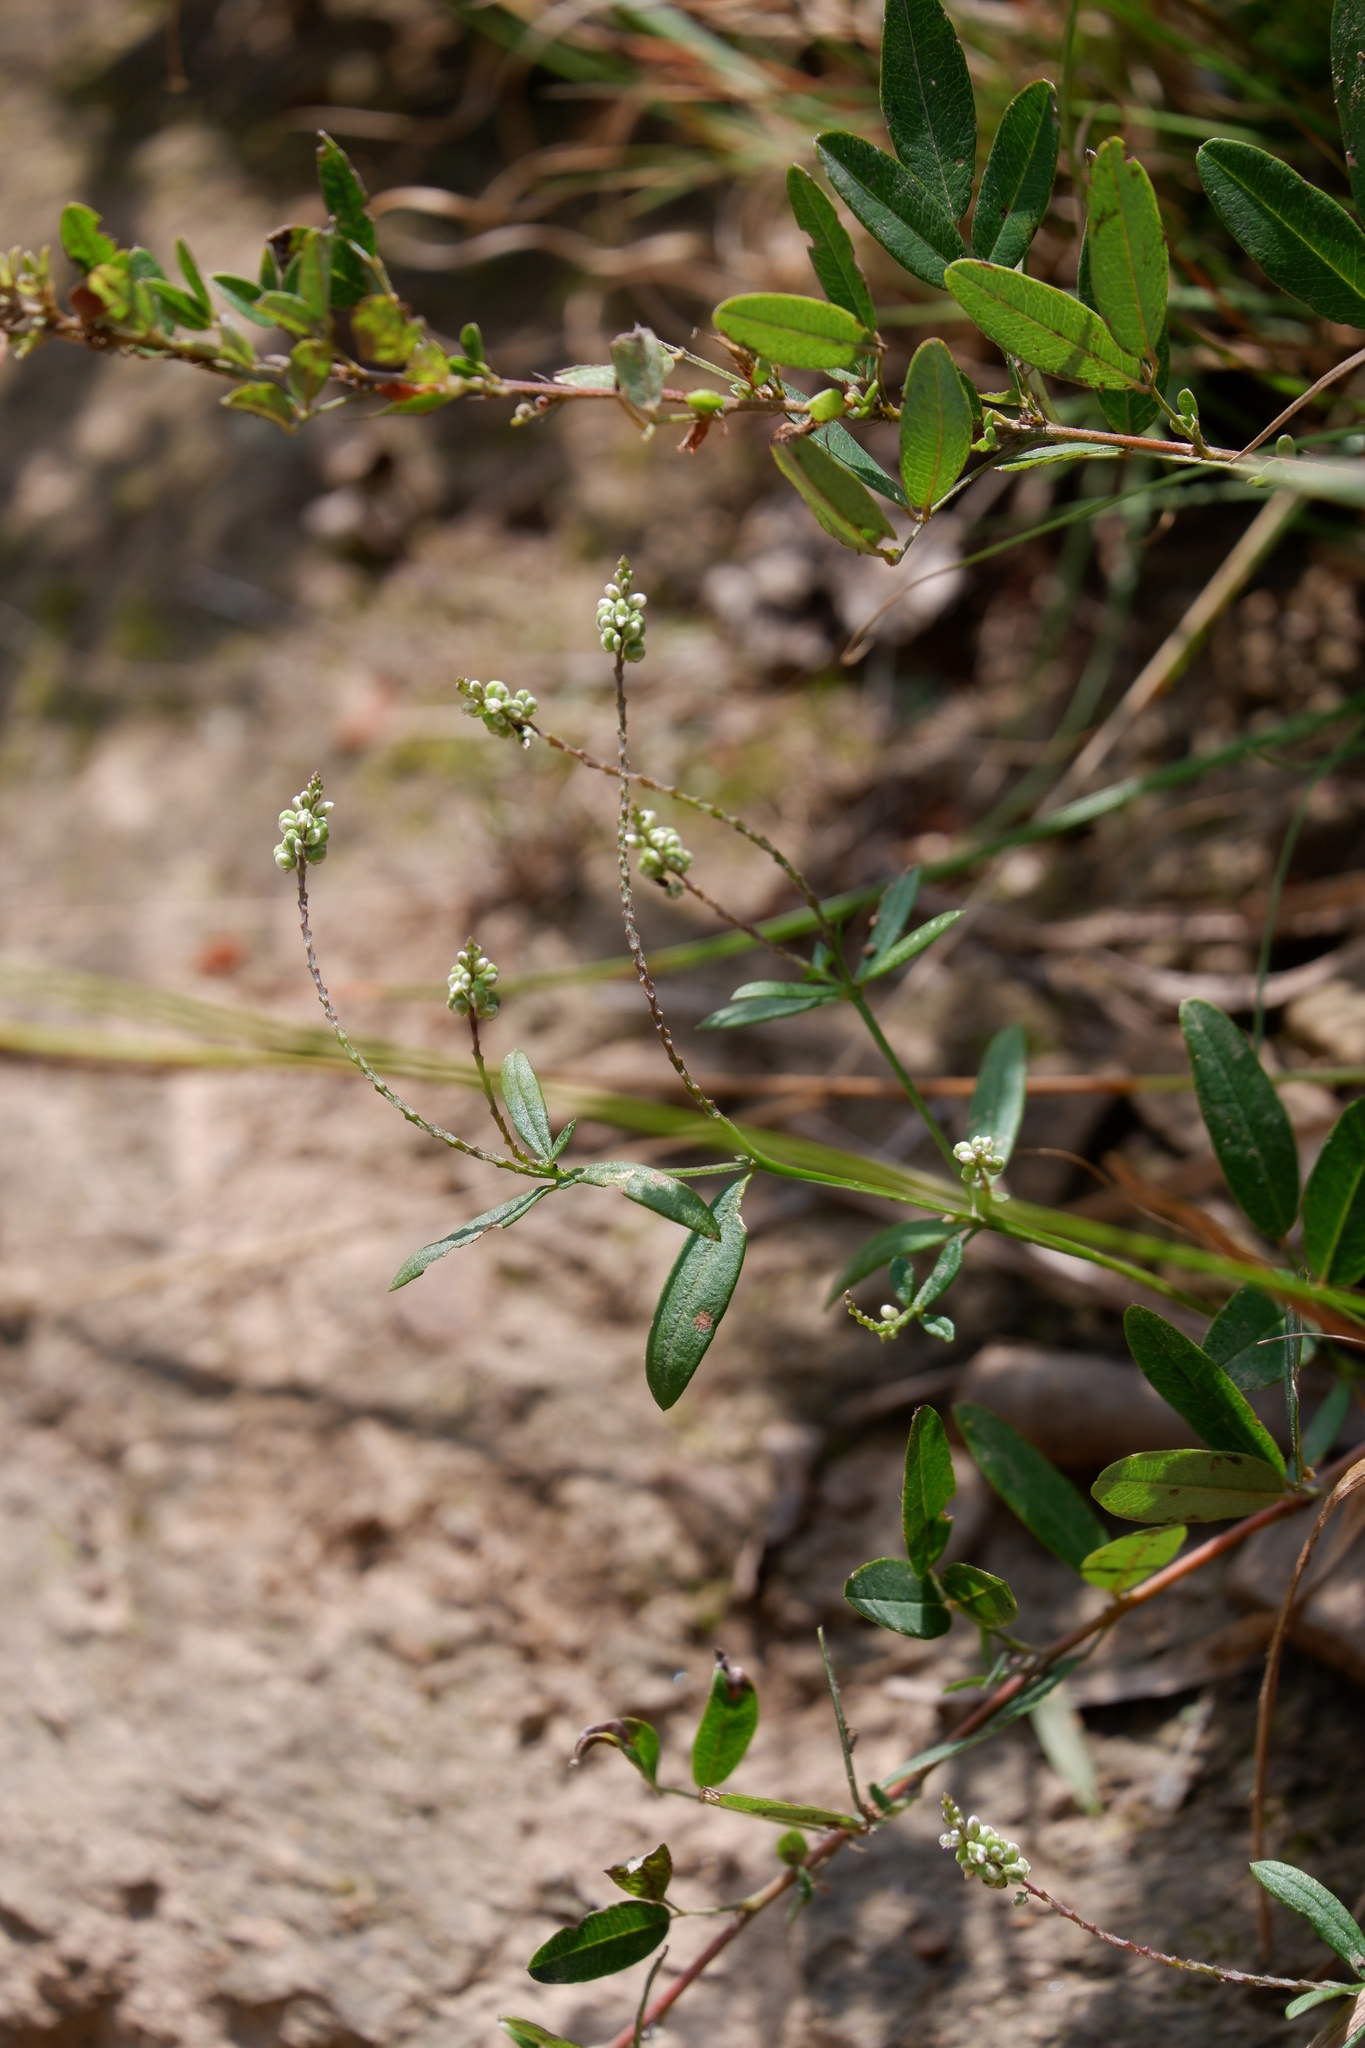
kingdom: Plantae
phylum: Tracheophyta
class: Magnoliopsida
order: Fabales
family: Polygalaceae
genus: Polygala
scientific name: Polygala verticillata
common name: Whorl milkwort
